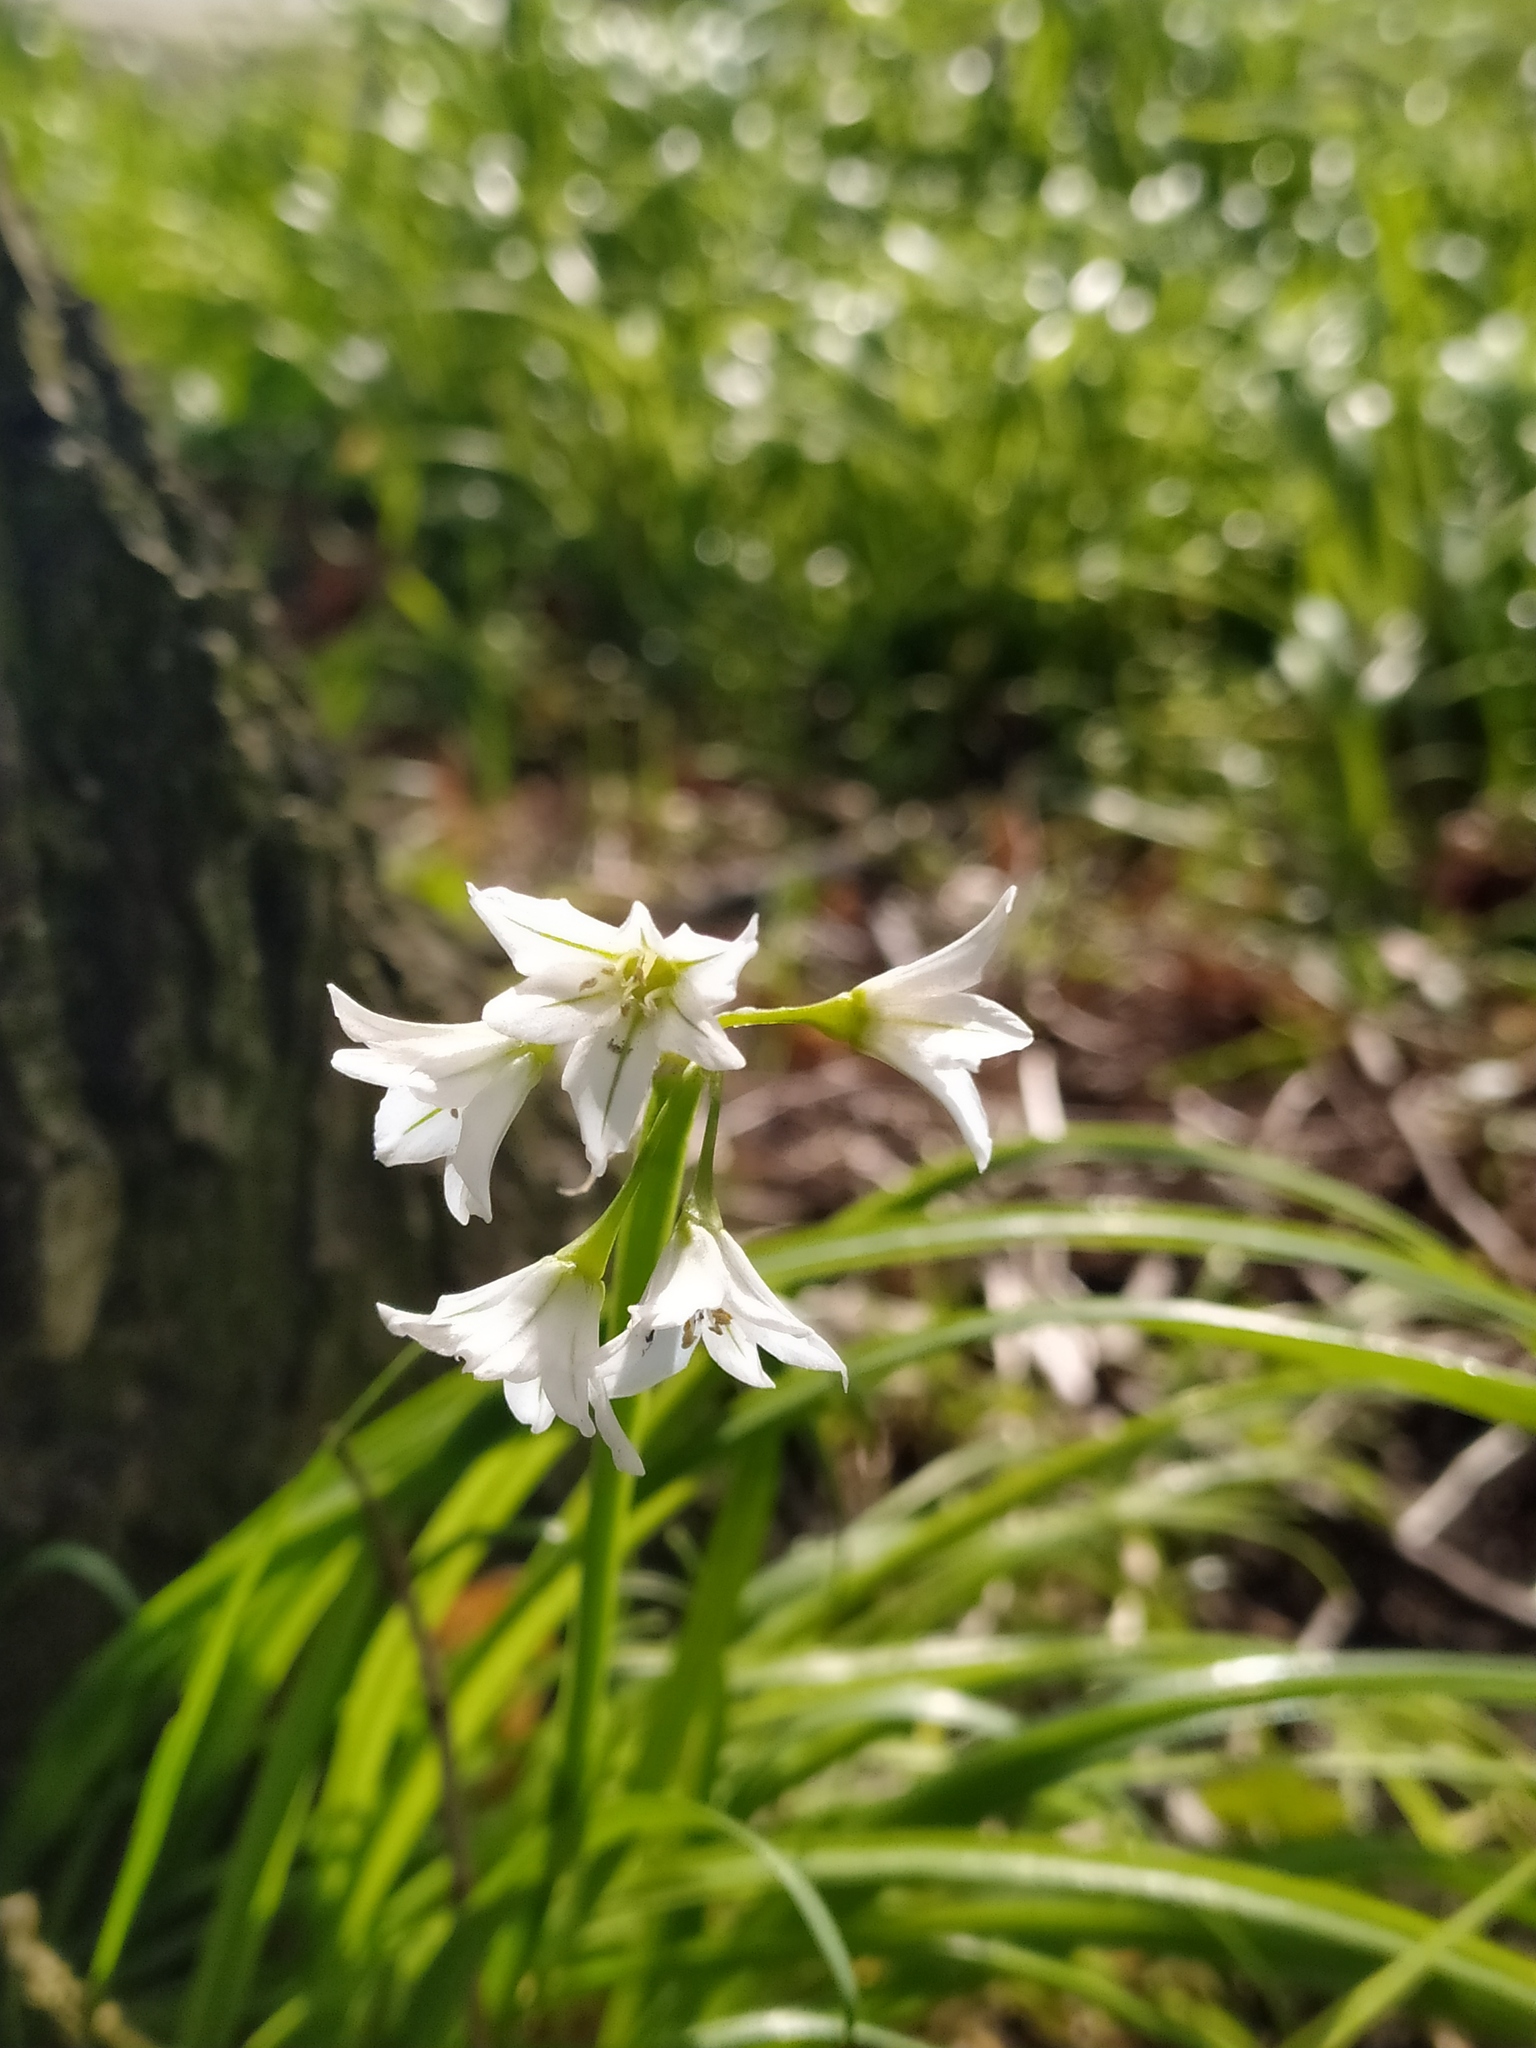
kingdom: Plantae
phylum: Tracheophyta
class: Liliopsida
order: Asparagales
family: Amaryllidaceae
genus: Allium
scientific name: Allium triquetrum
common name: Three-cornered garlic
